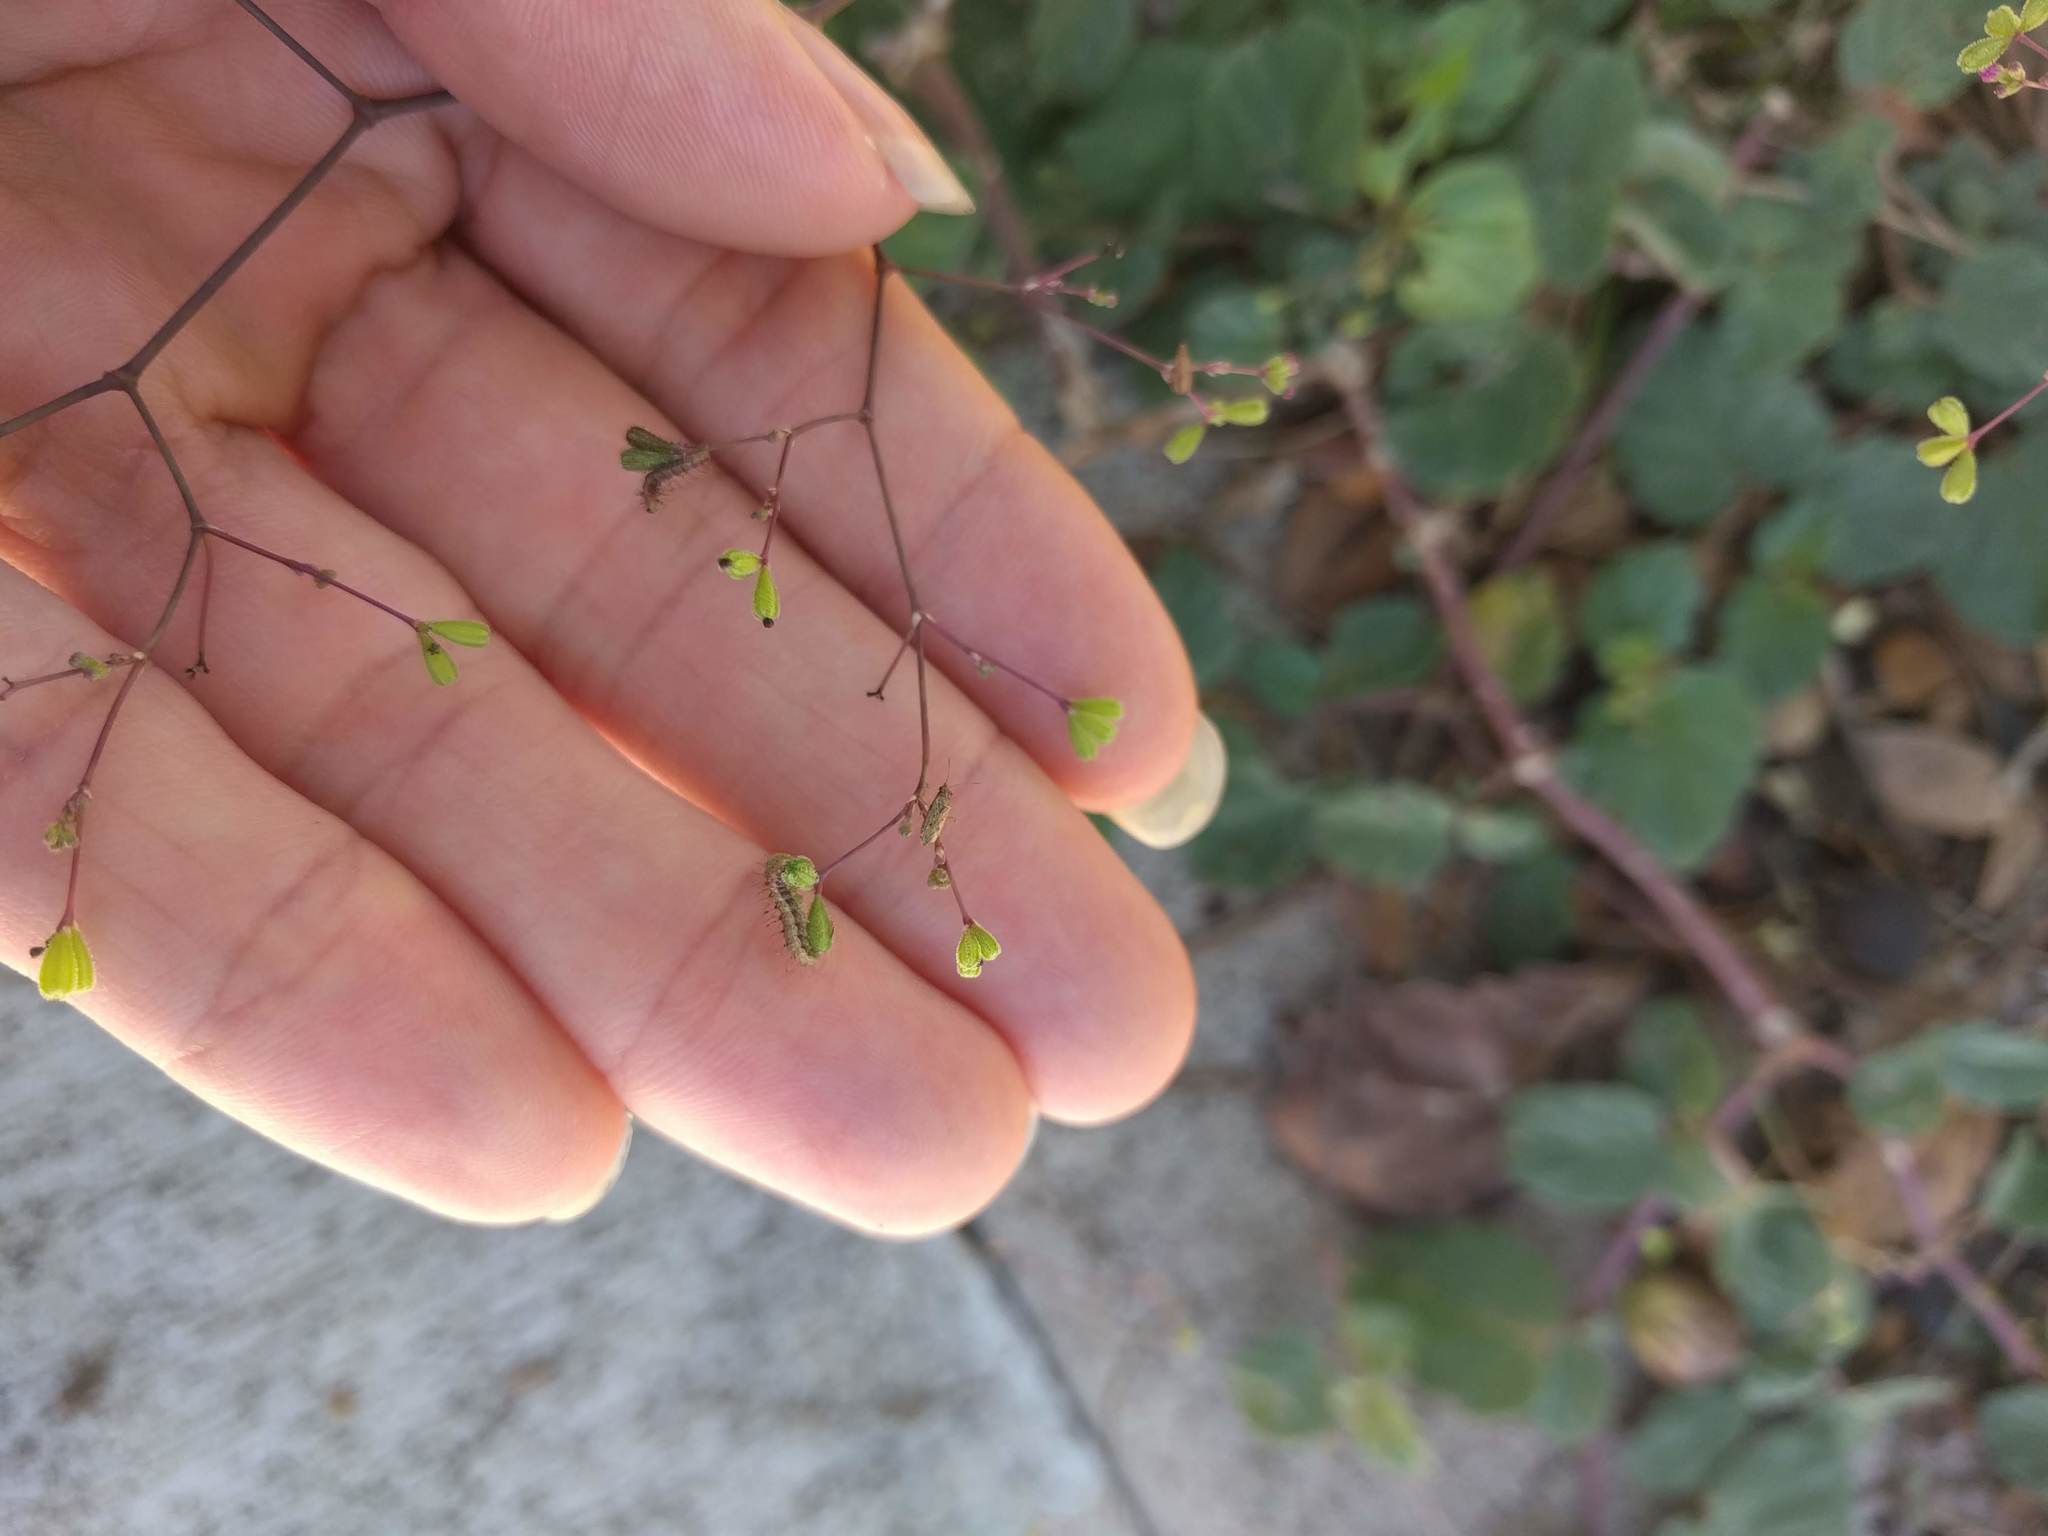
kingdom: Plantae
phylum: Tracheophyta
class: Magnoliopsida
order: Caryophyllales
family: Nyctaginaceae
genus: Boerhavia
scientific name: Boerhavia diffusa
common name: Red spiderling
